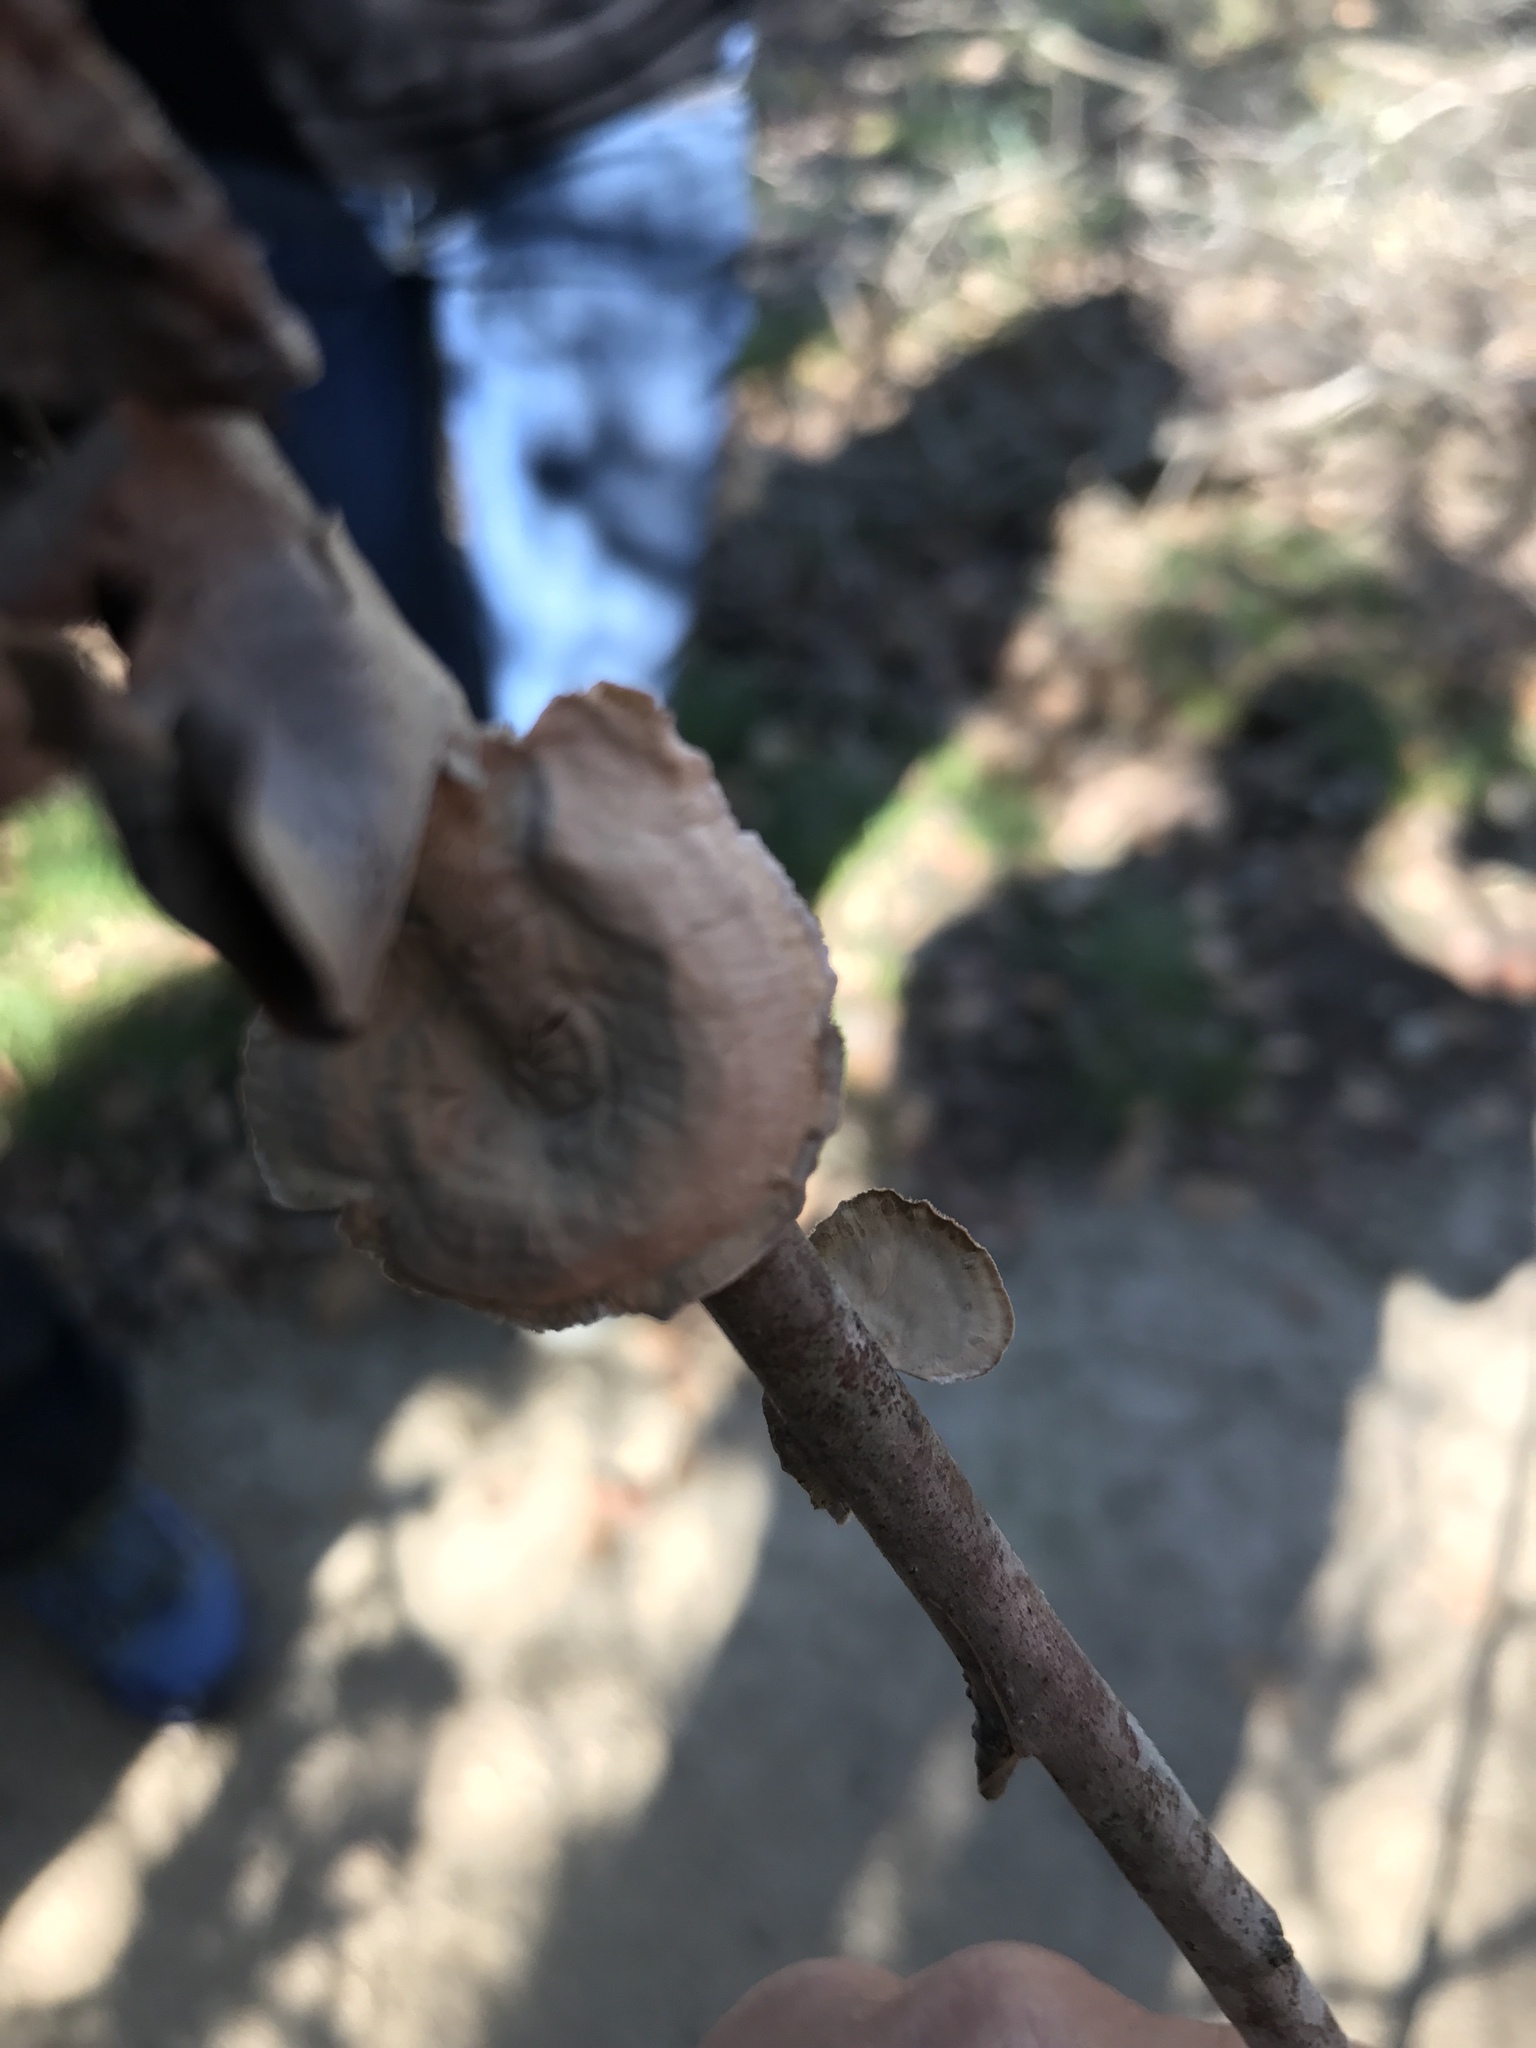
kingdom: Fungi
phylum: Basidiomycota
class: Agaricomycetes
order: Russulales
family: Stereaceae
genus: Stereum
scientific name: Stereum ostrea
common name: False turkeytail
